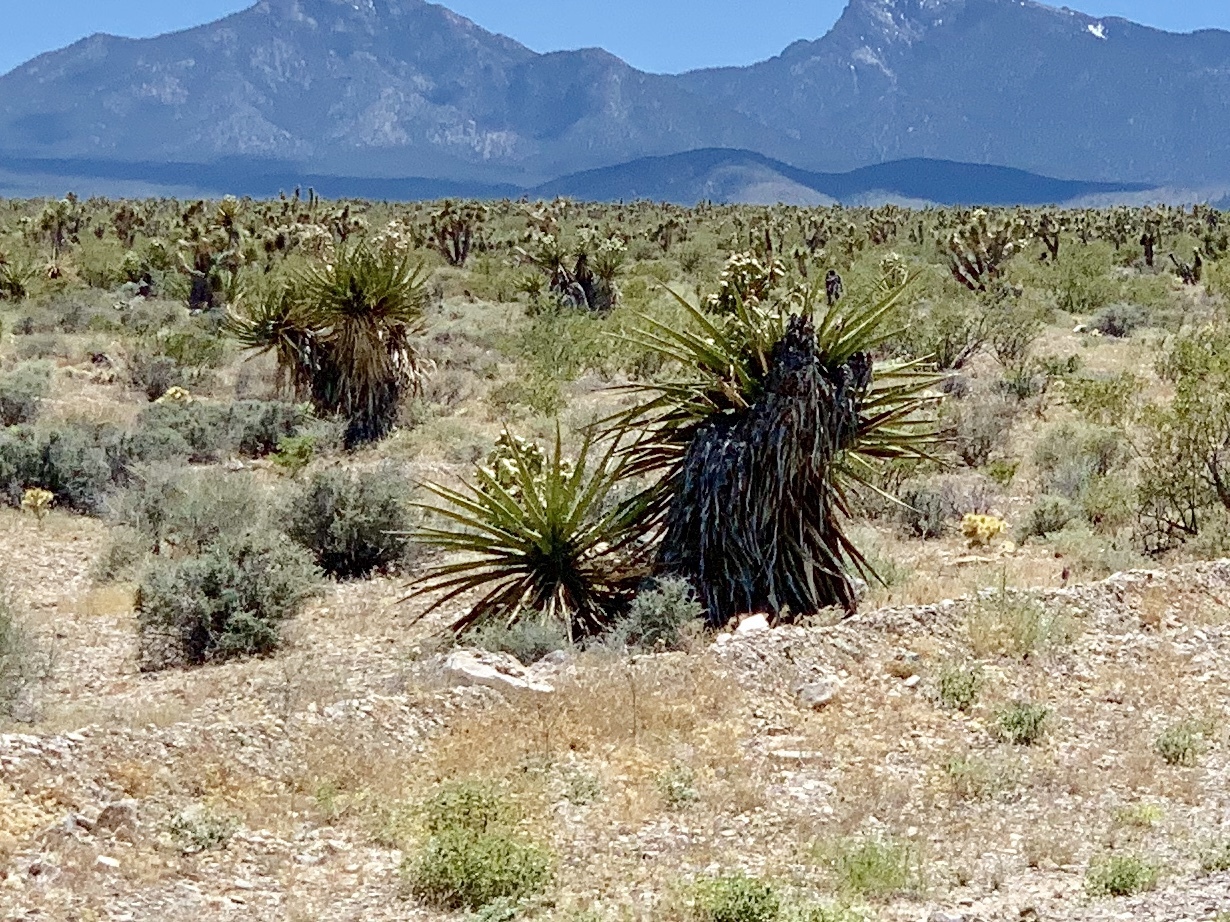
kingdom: Plantae
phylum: Tracheophyta
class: Liliopsida
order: Asparagales
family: Asparagaceae
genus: Yucca
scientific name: Yucca schidigera
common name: Mojave yucca
